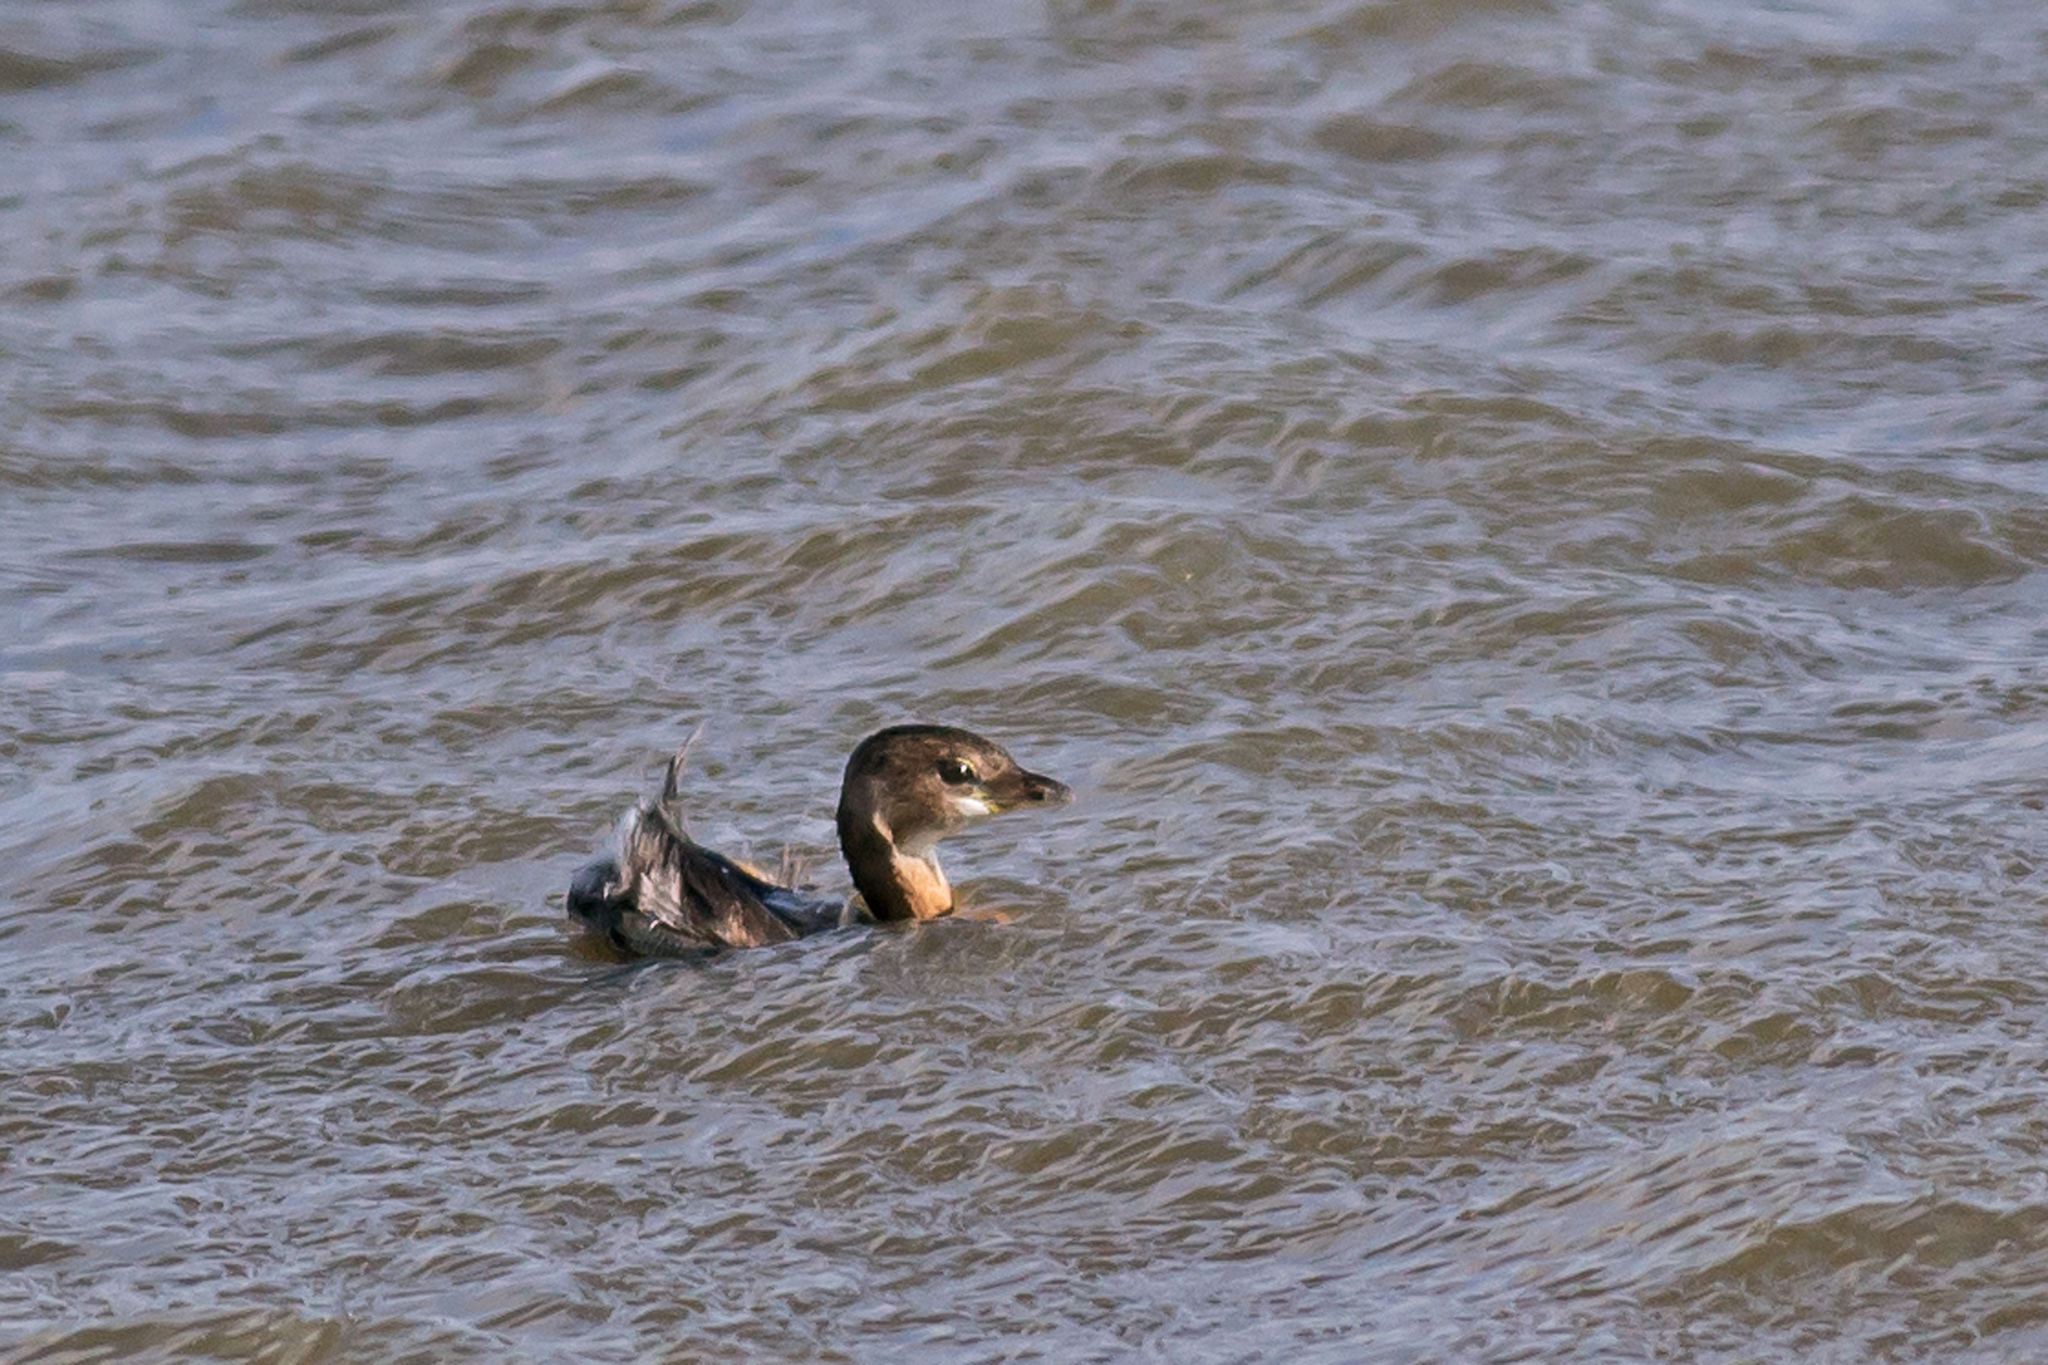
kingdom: Animalia
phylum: Chordata
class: Aves
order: Podicipediformes
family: Podicipedidae
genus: Podilymbus
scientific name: Podilymbus podiceps
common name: Pied-billed grebe
